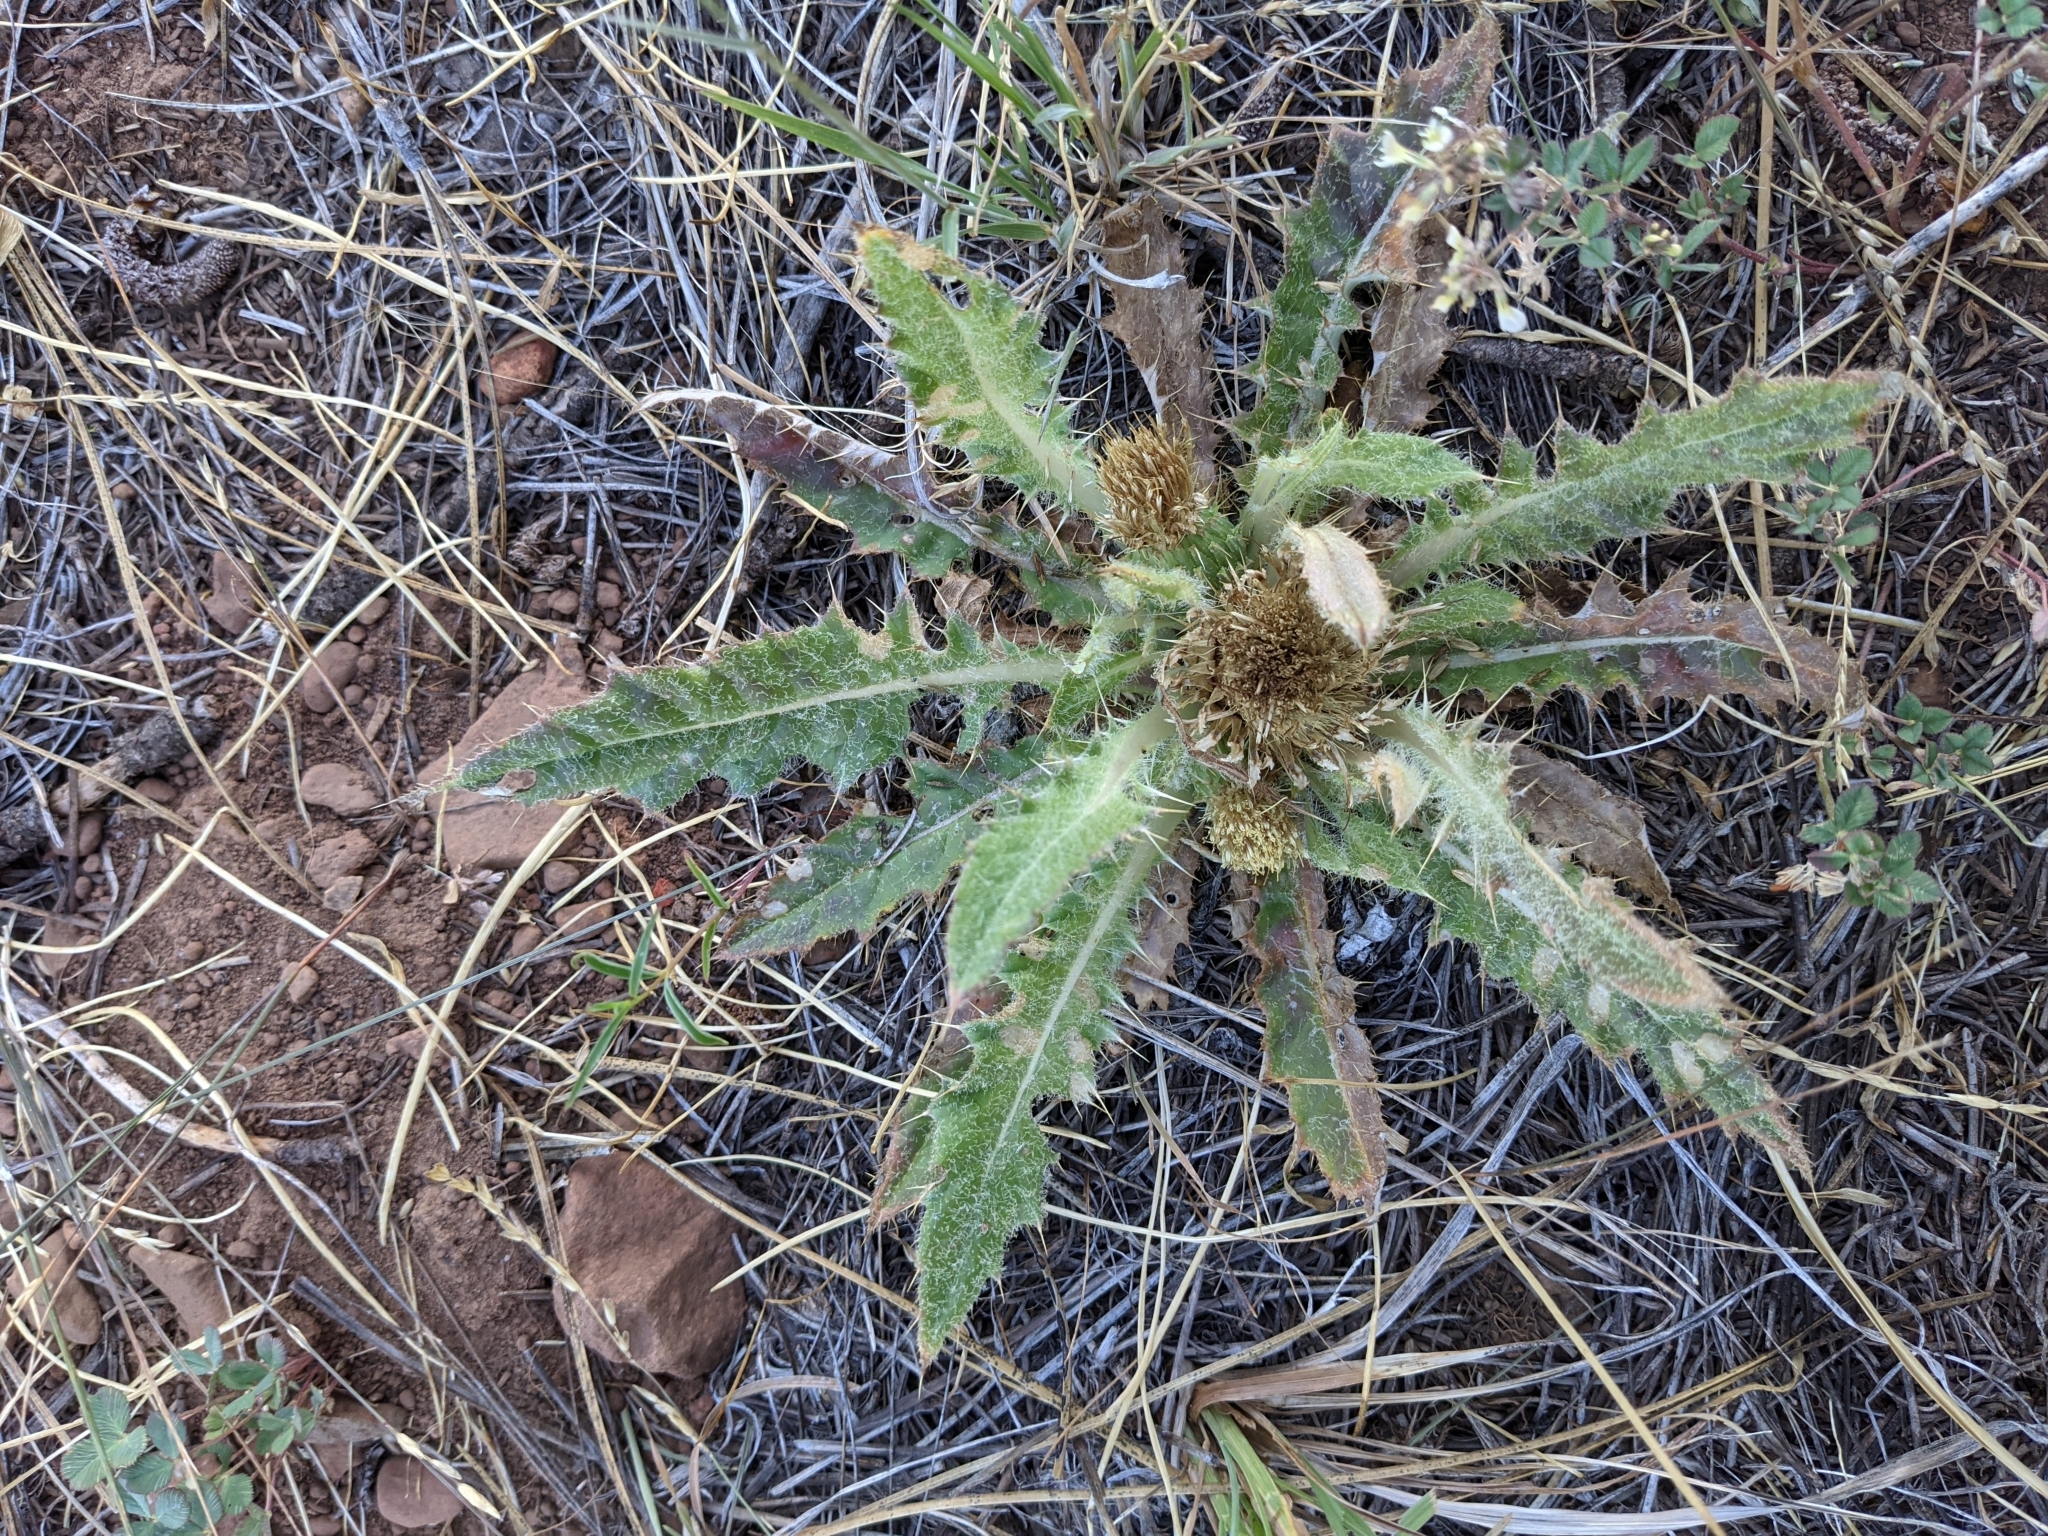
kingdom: Plantae
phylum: Tracheophyta
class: Magnoliopsida
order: Asterales
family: Asteraceae
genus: Cirsium
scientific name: Cirsium scariosum
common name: Meadow thistle
